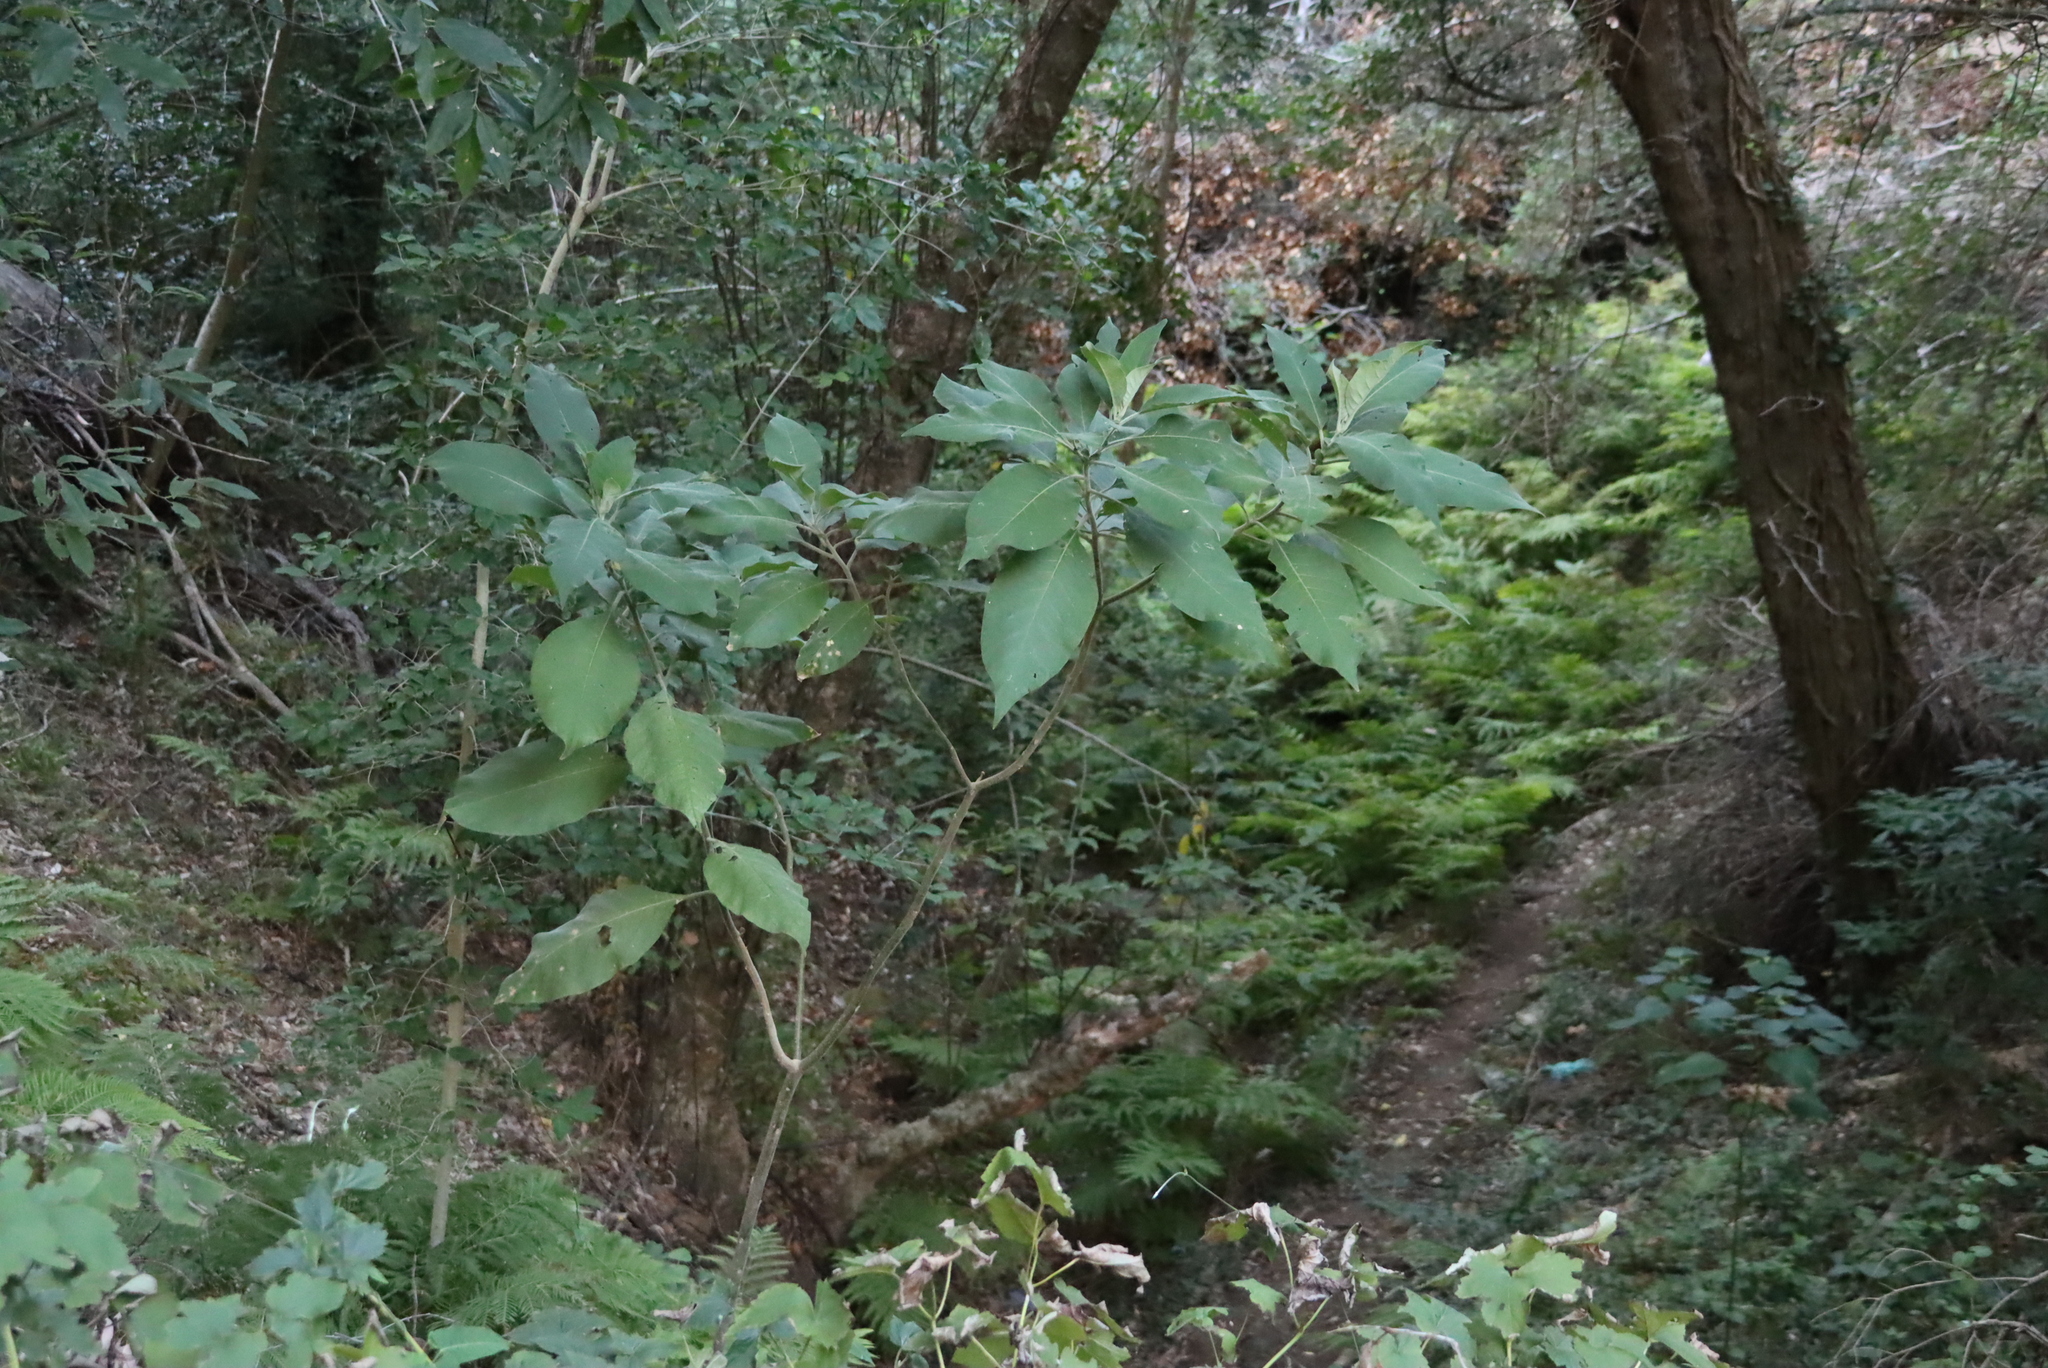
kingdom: Plantae
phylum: Tracheophyta
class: Magnoliopsida
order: Solanales
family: Solanaceae
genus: Solanum
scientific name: Solanum mauritianum
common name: Earleaf nightshade
